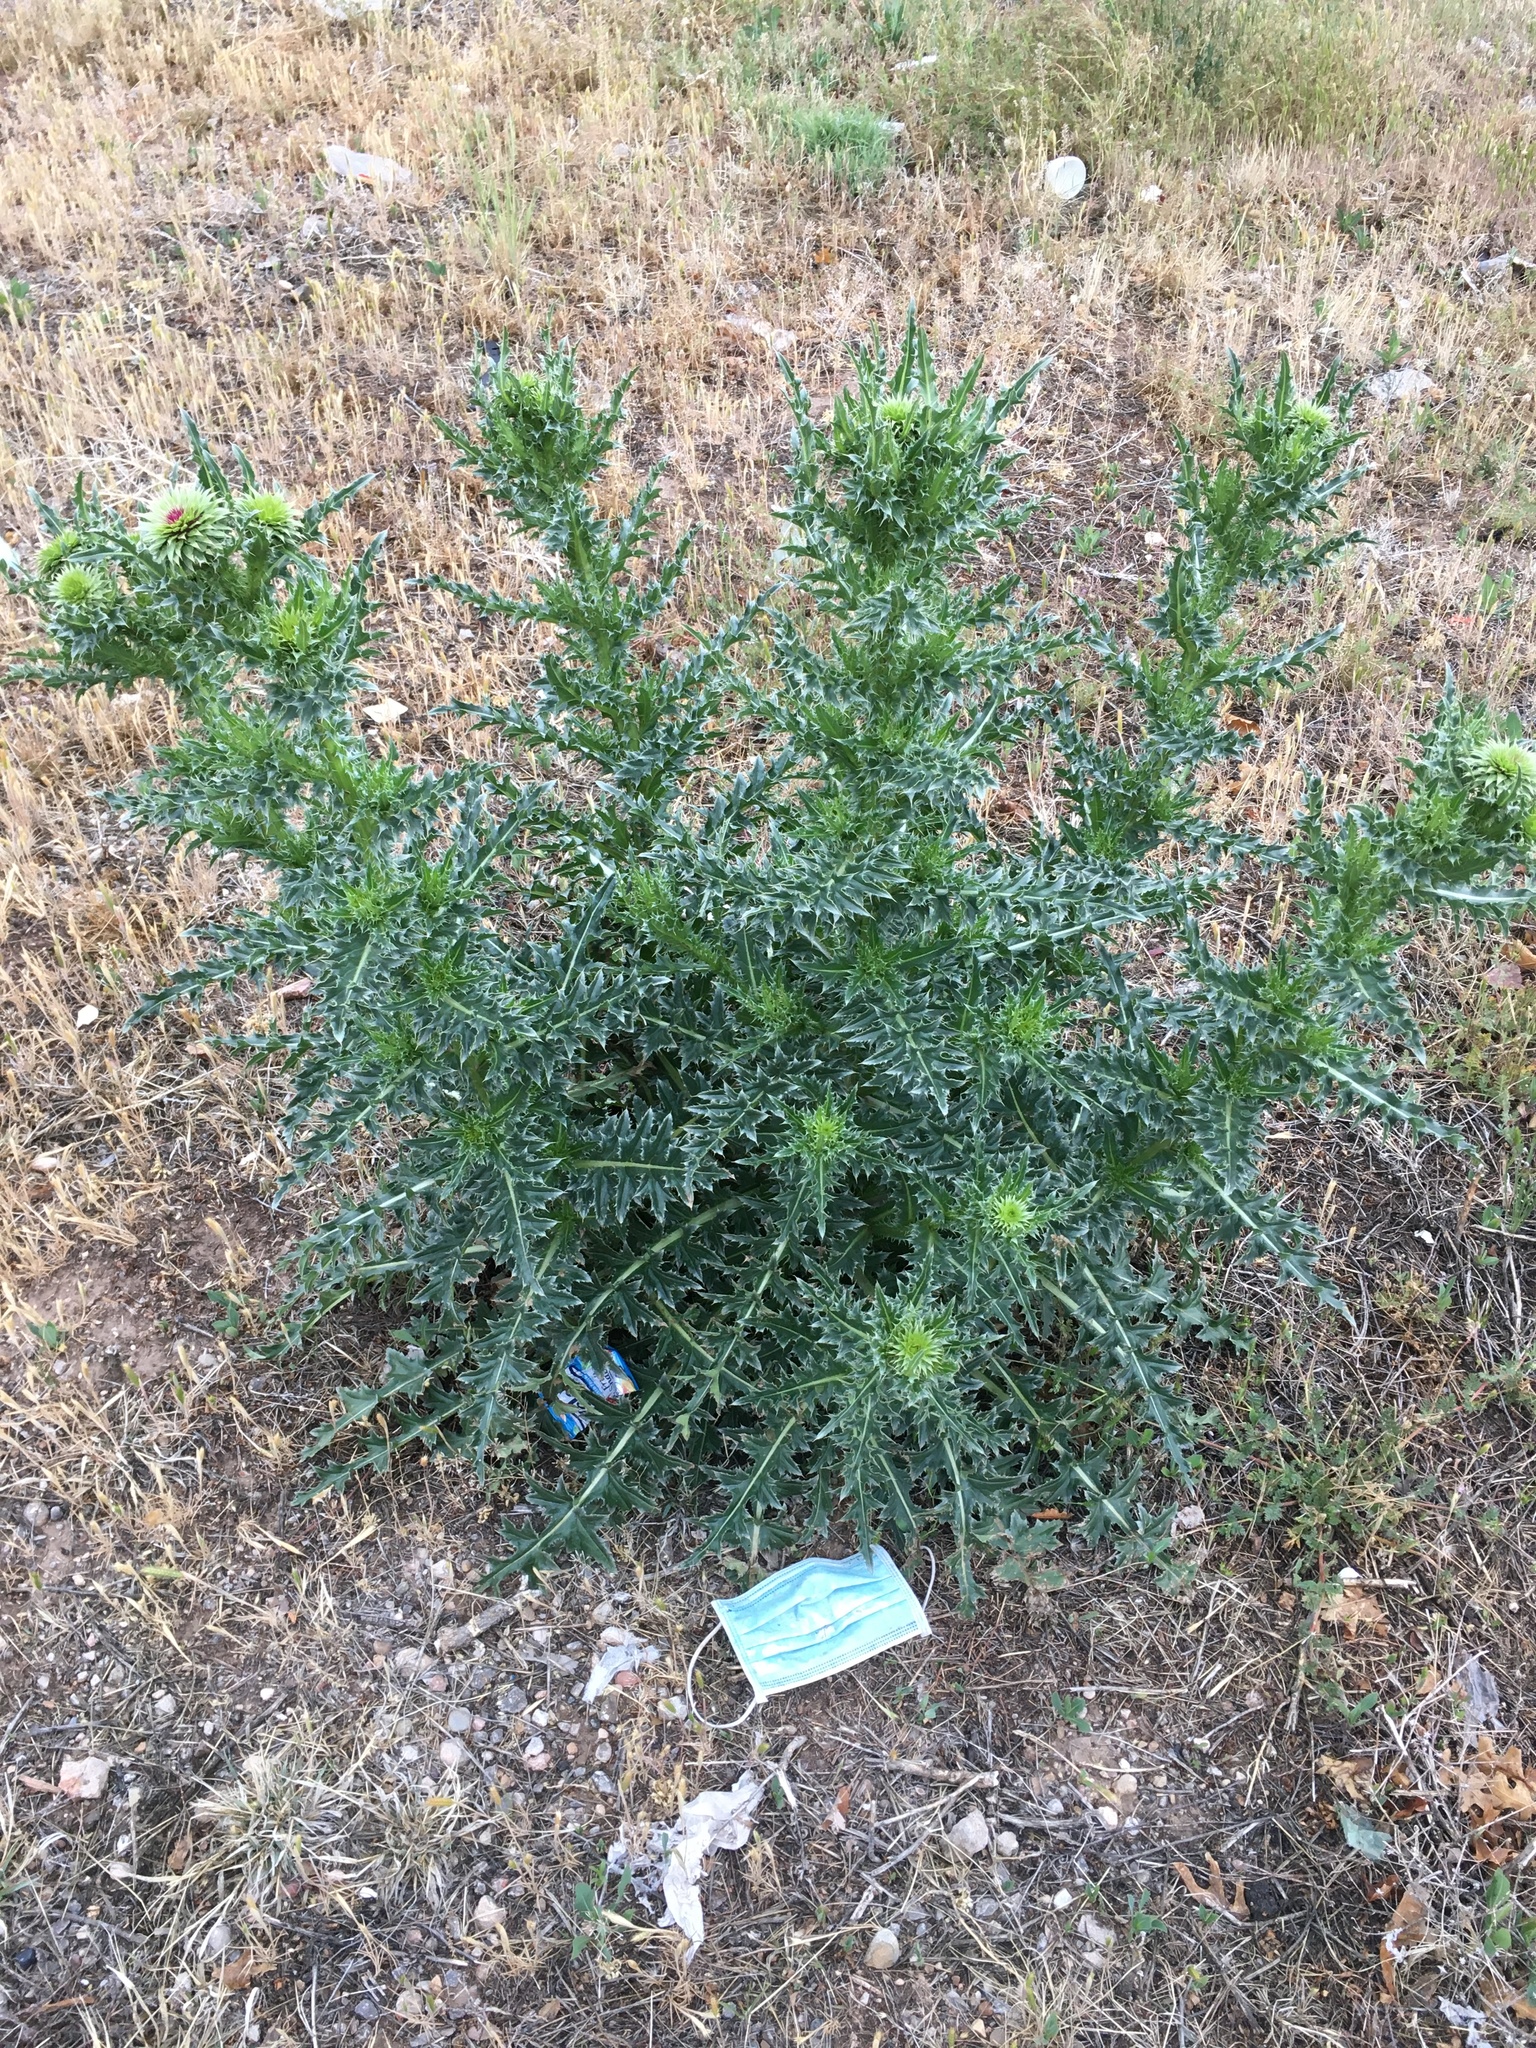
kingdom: Plantae
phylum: Tracheophyta
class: Magnoliopsida
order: Asterales
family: Asteraceae
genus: Carduus
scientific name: Carduus nutans
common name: Musk thistle
